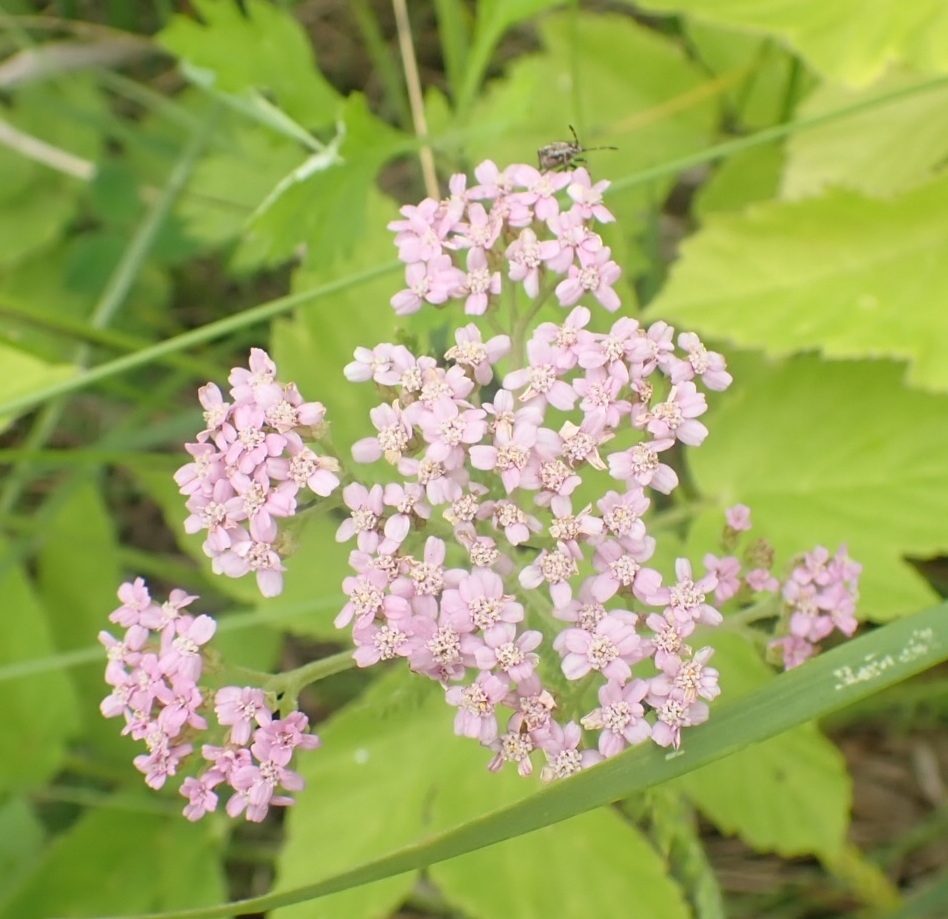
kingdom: Plantae
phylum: Tracheophyta
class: Magnoliopsida
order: Asterales
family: Asteraceae
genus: Achillea
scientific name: Achillea asiatica
